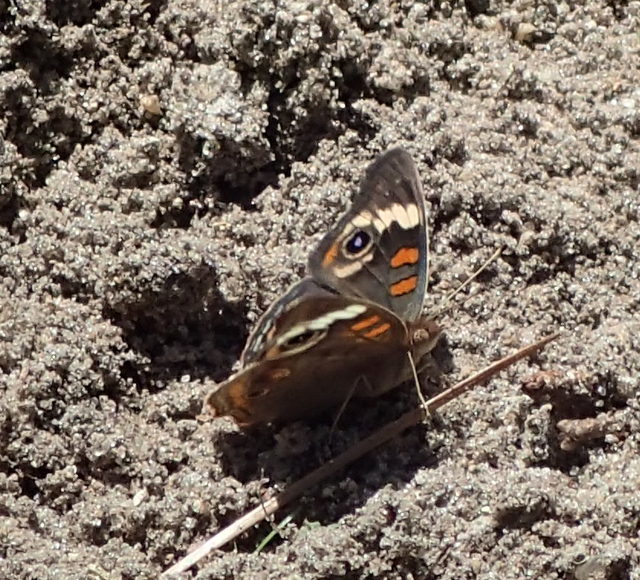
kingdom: Animalia
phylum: Arthropoda
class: Insecta
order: Lepidoptera
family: Nymphalidae
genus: Junonia
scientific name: Junonia coenia
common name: Common buckeye
